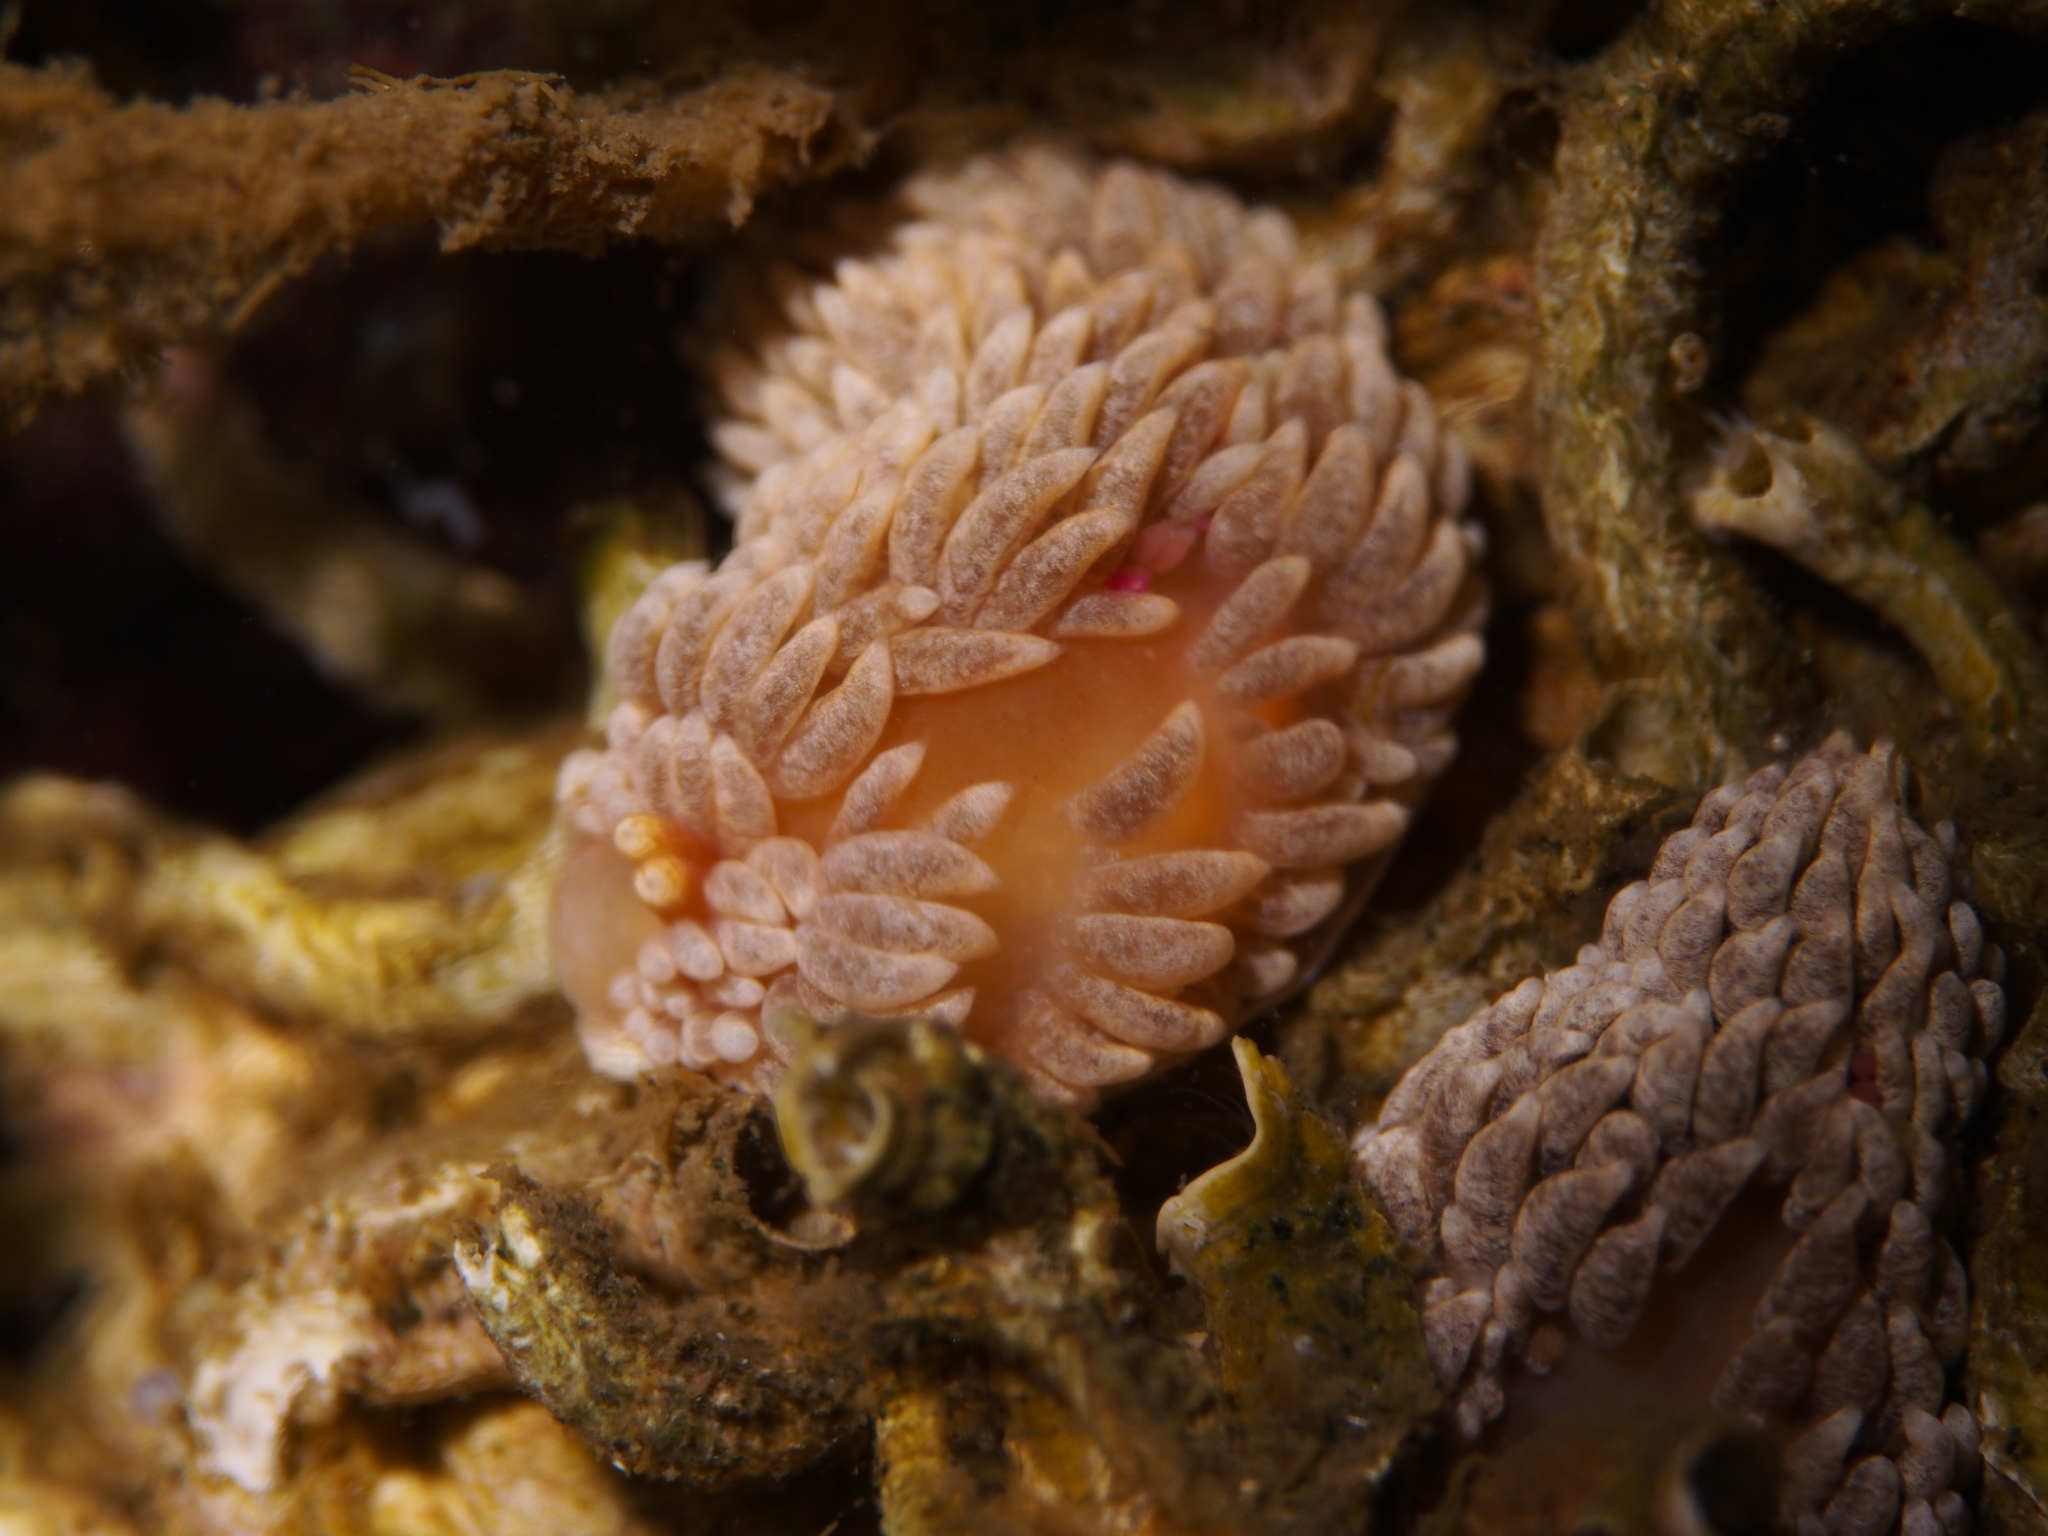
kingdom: Animalia
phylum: Mollusca
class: Gastropoda
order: Nudibranchia
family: Aeolidiidae
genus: Aeolidiella
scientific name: Aeolidiella glauca
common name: Orange-brown aeolid
